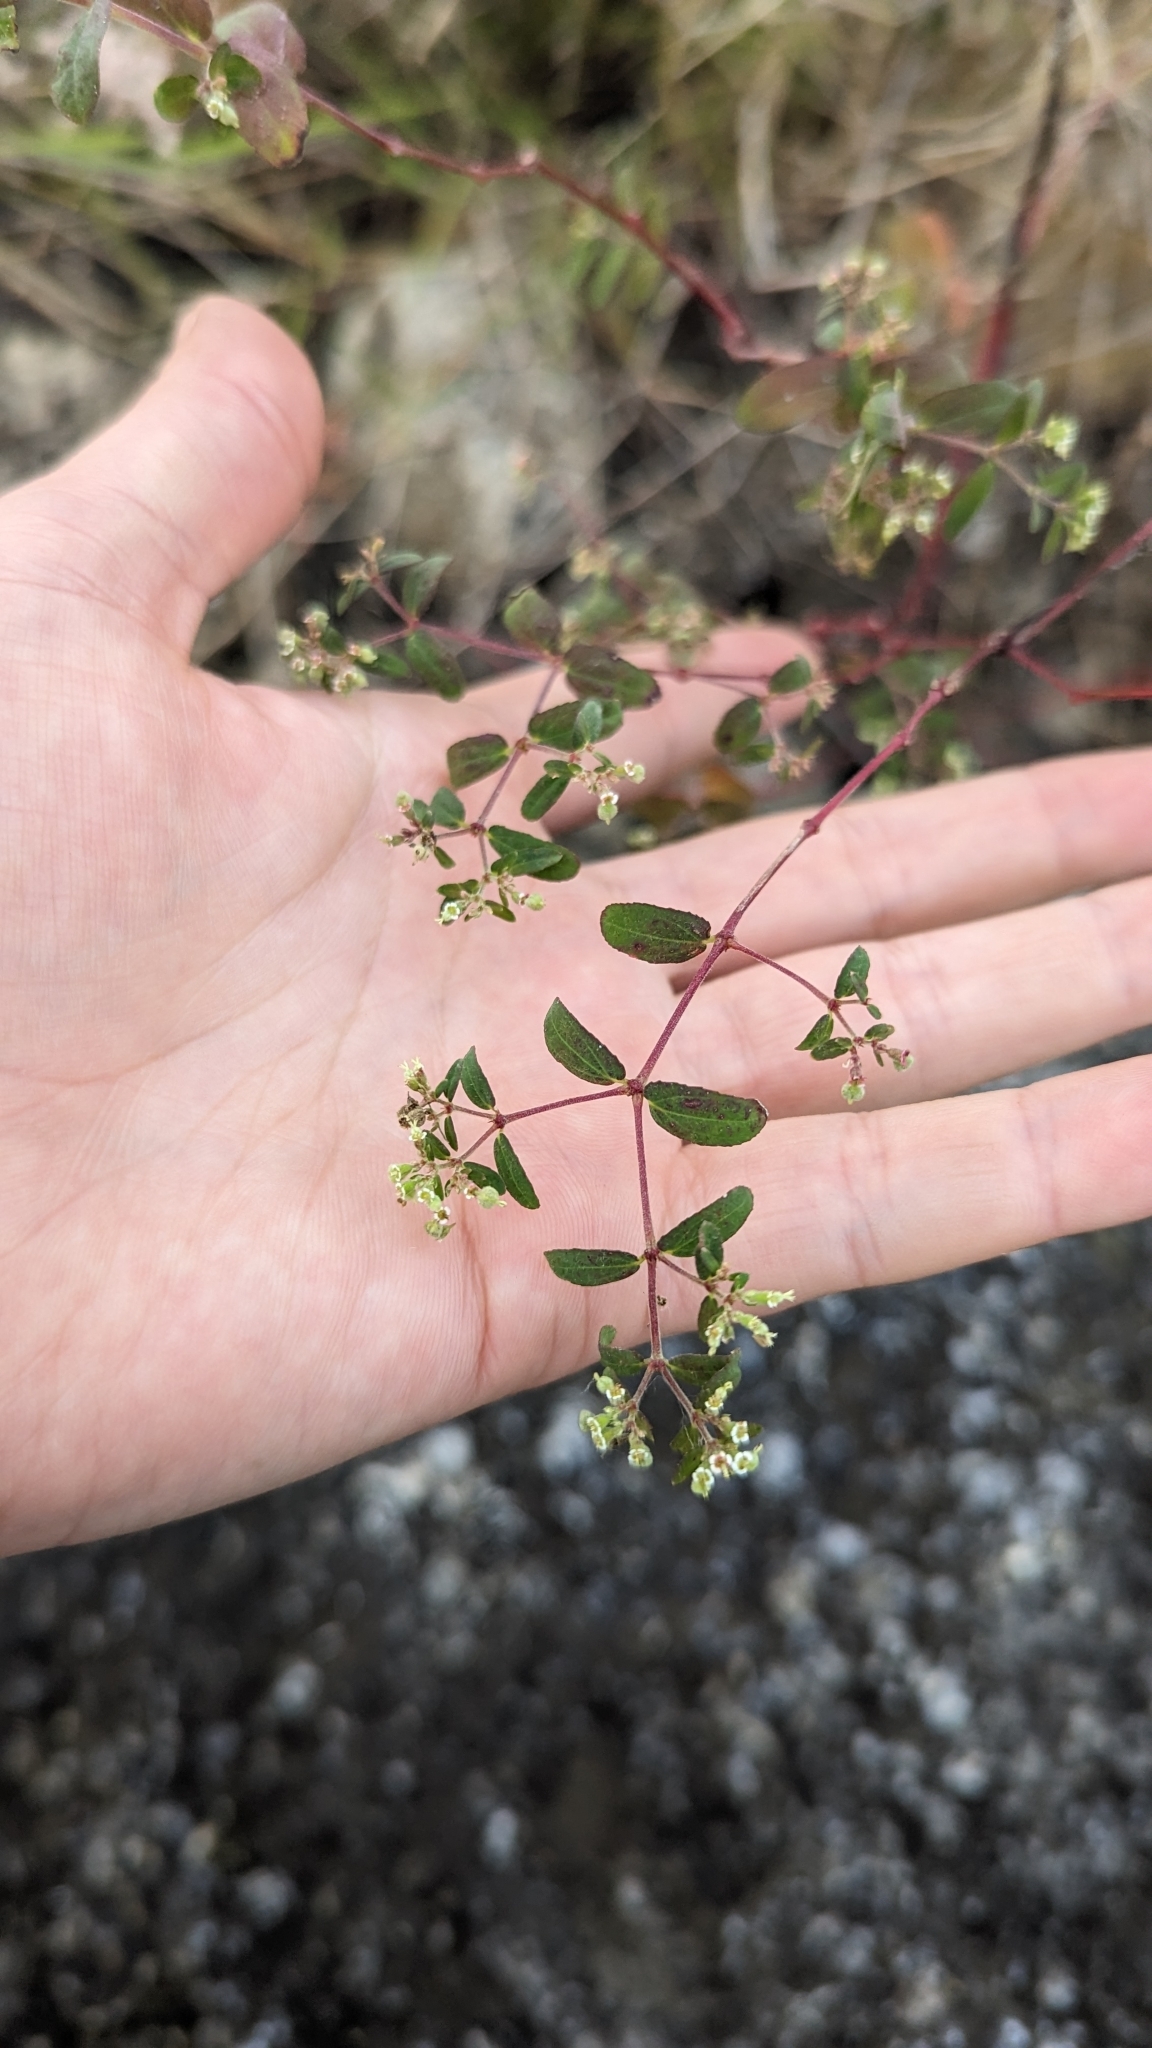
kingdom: Plantae
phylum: Tracheophyta
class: Magnoliopsida
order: Malpighiales
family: Euphorbiaceae
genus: Euphorbia
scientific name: Euphorbia lasiocarpa
